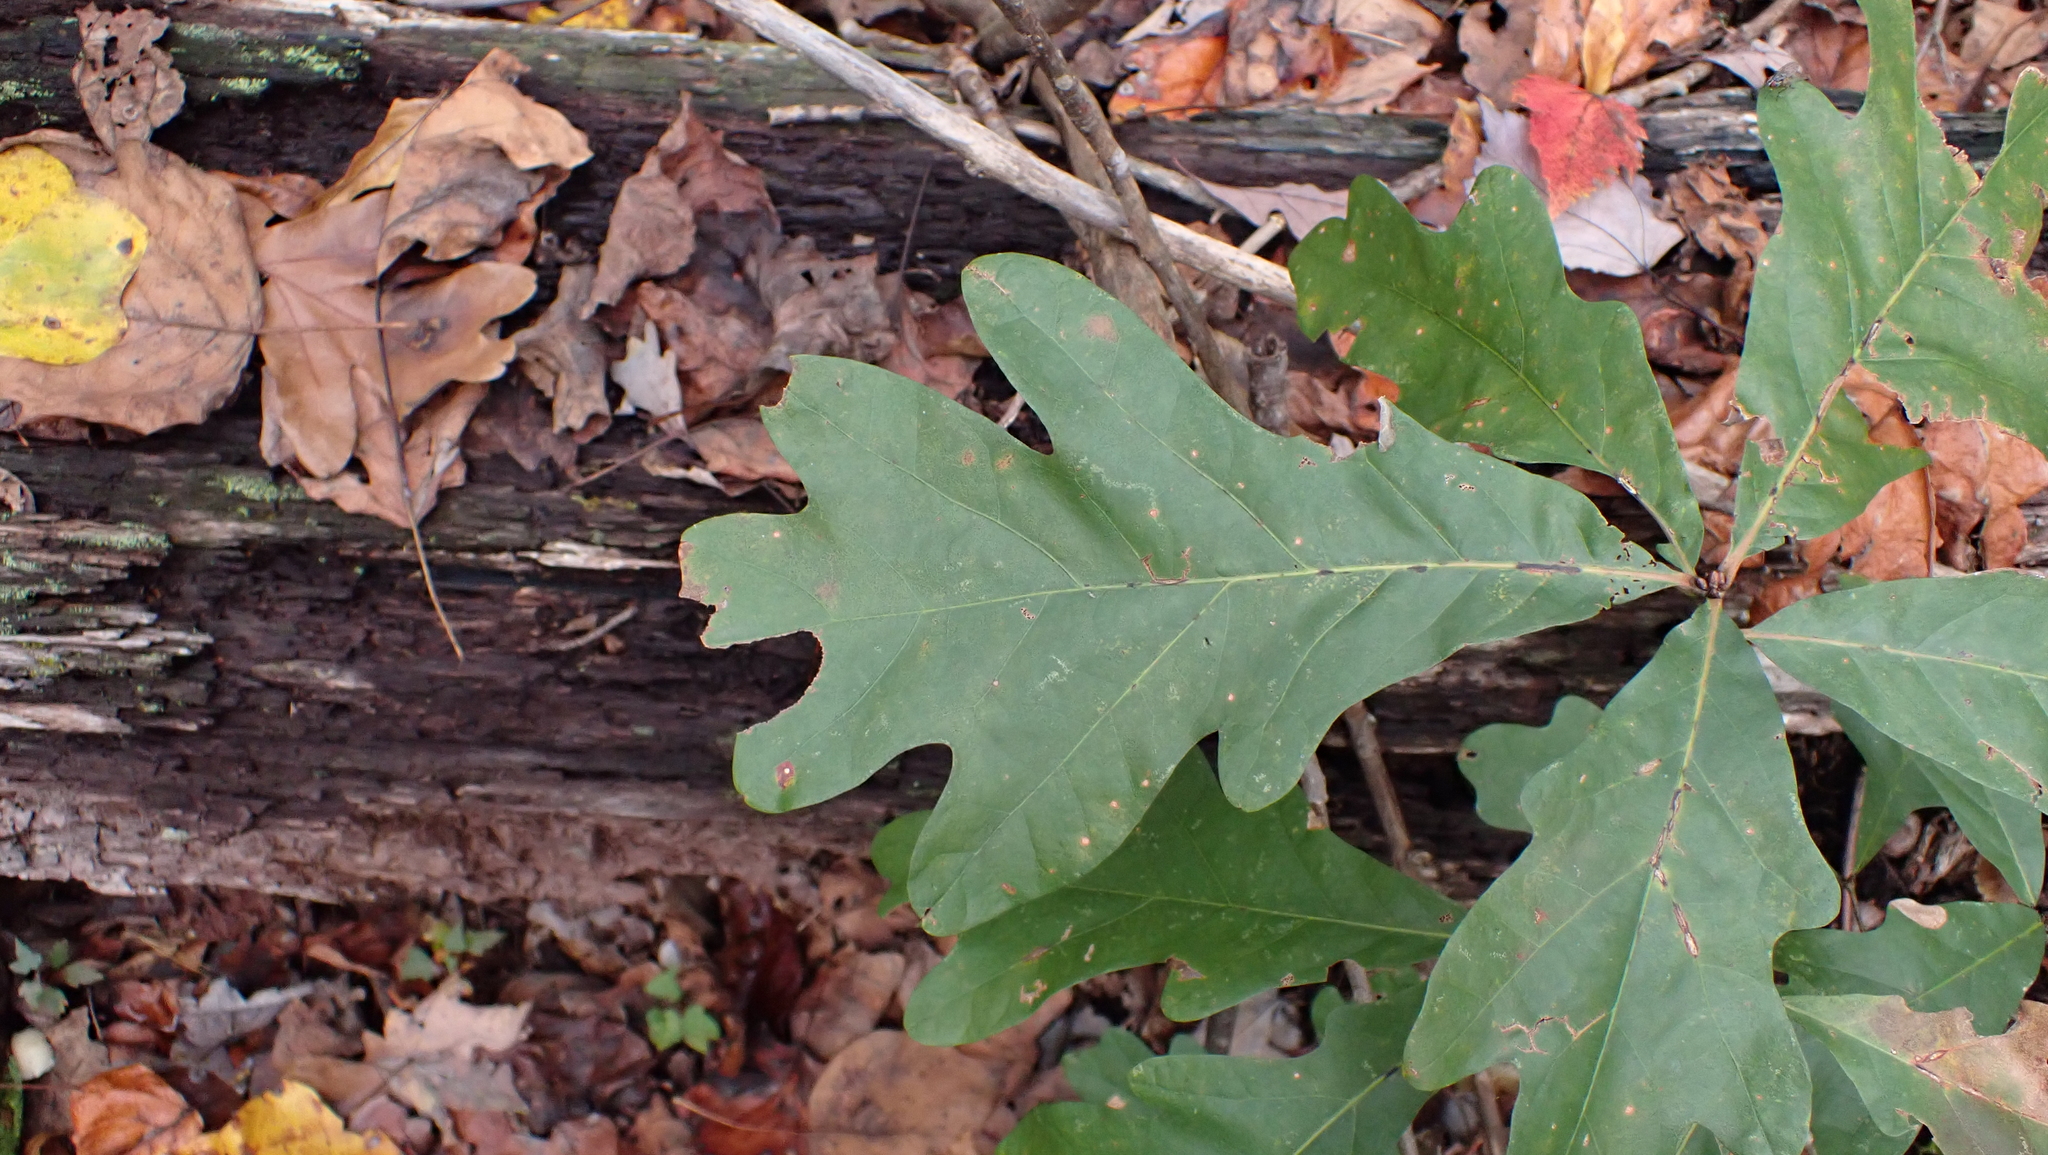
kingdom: Plantae
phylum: Tracheophyta
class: Magnoliopsida
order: Fagales
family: Fagaceae
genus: Quercus
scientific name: Quercus alba
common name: White oak
